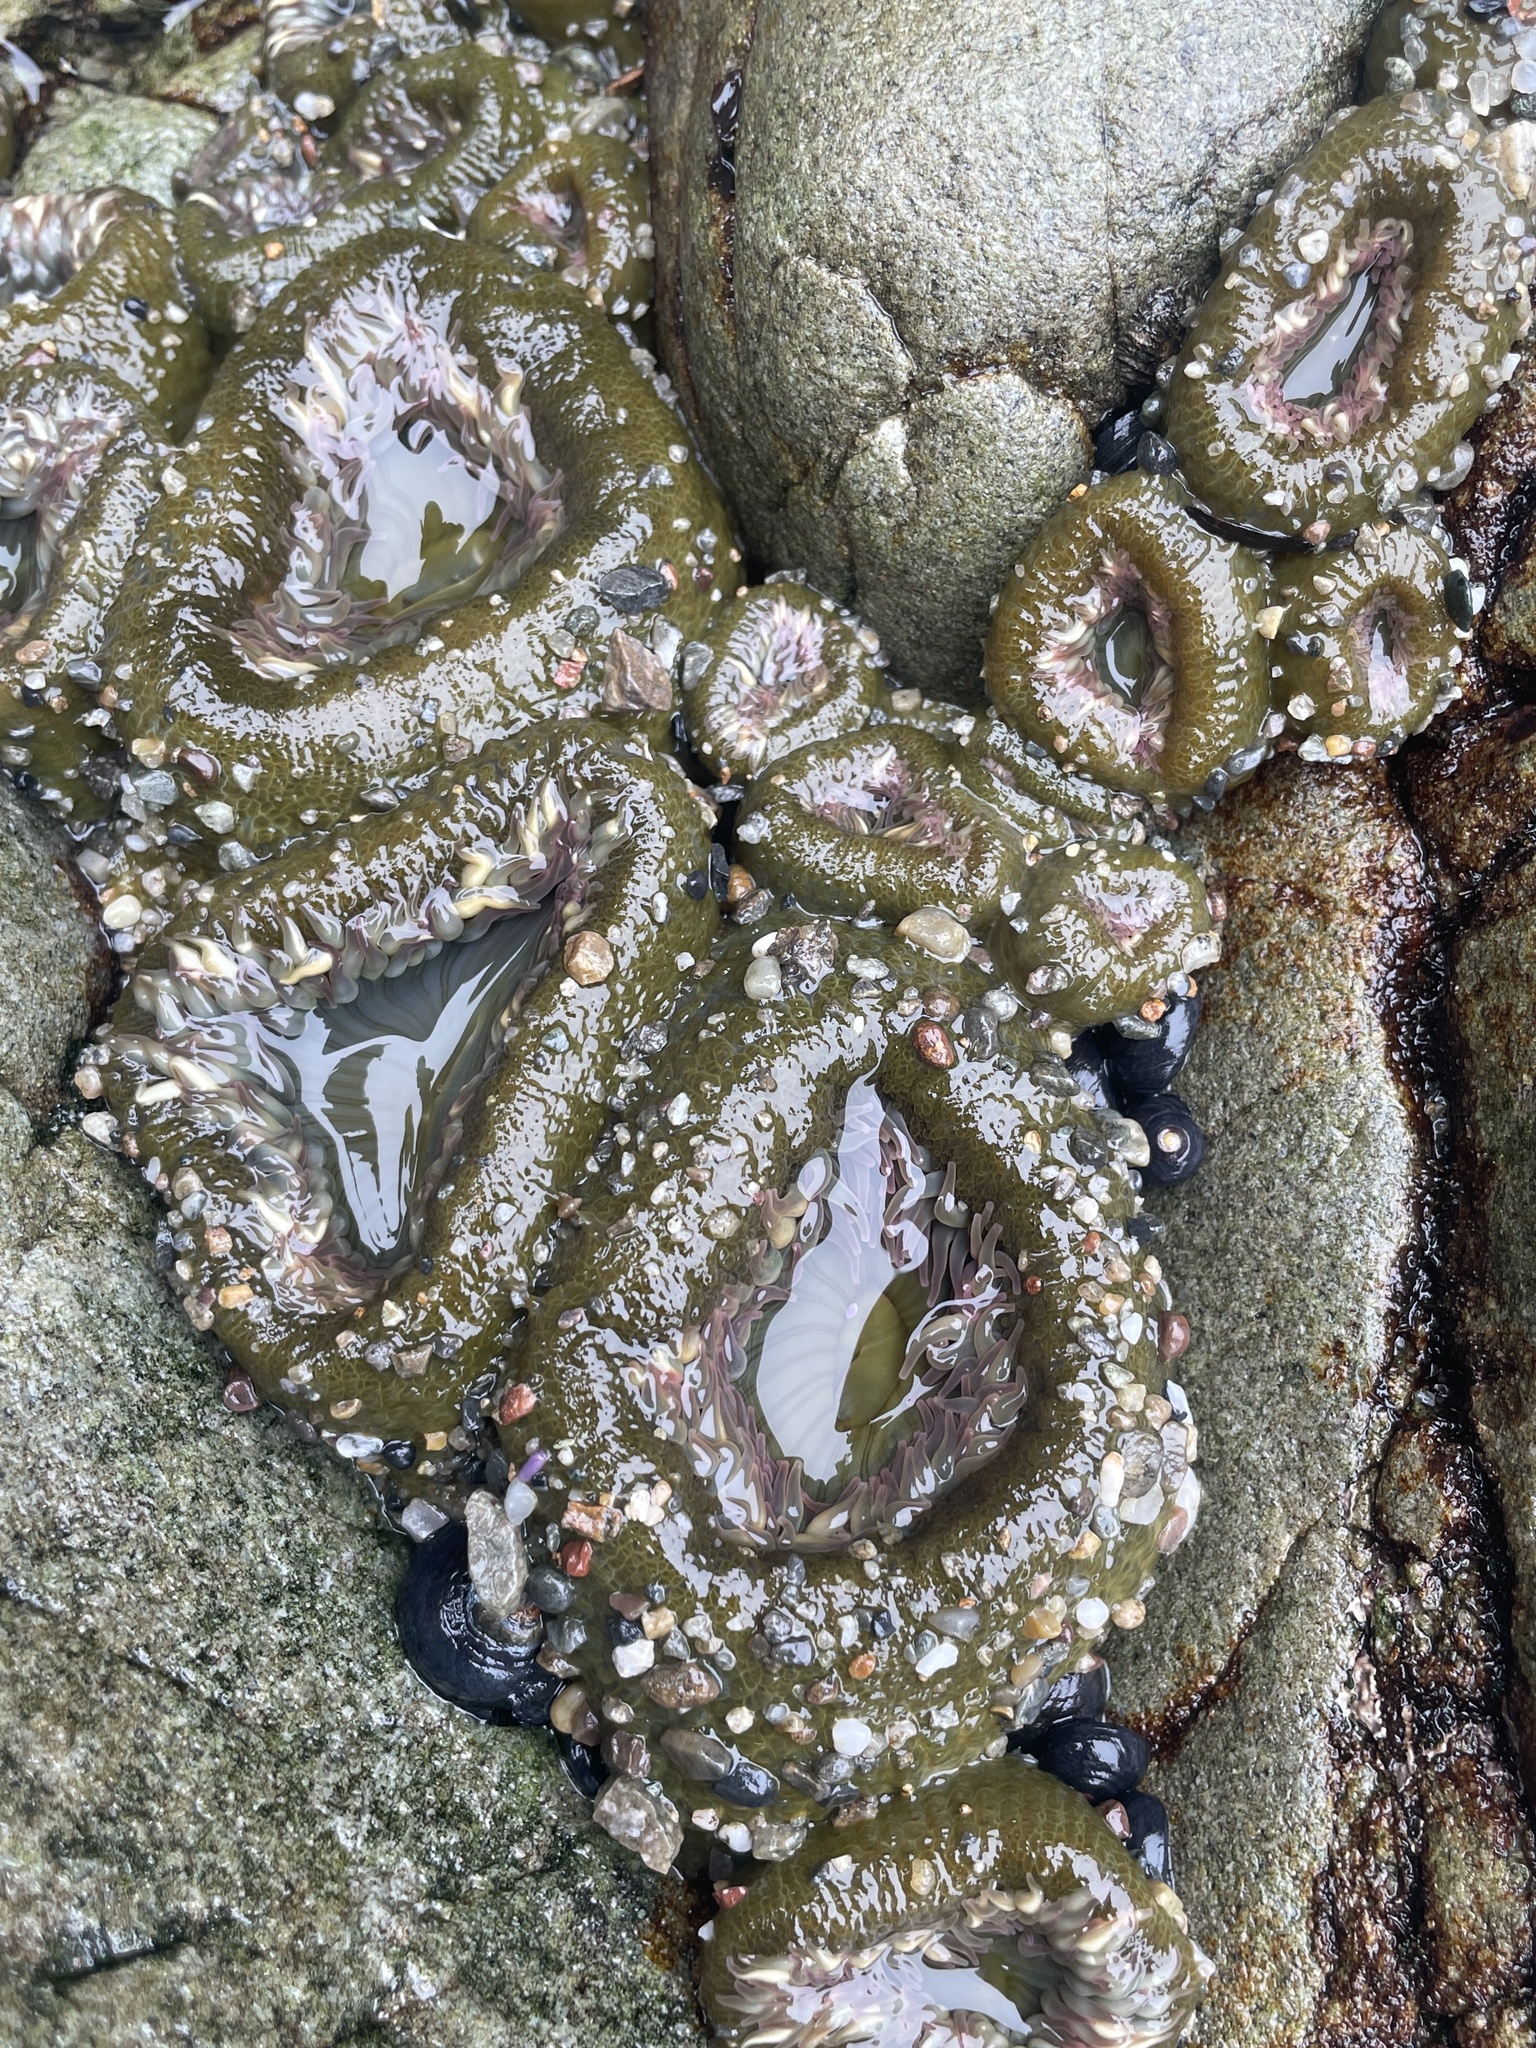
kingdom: Animalia
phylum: Cnidaria
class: Anthozoa
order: Actiniaria
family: Actiniidae
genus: Anthopleura
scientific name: Anthopleura elegantissima
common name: Clonal anemone
